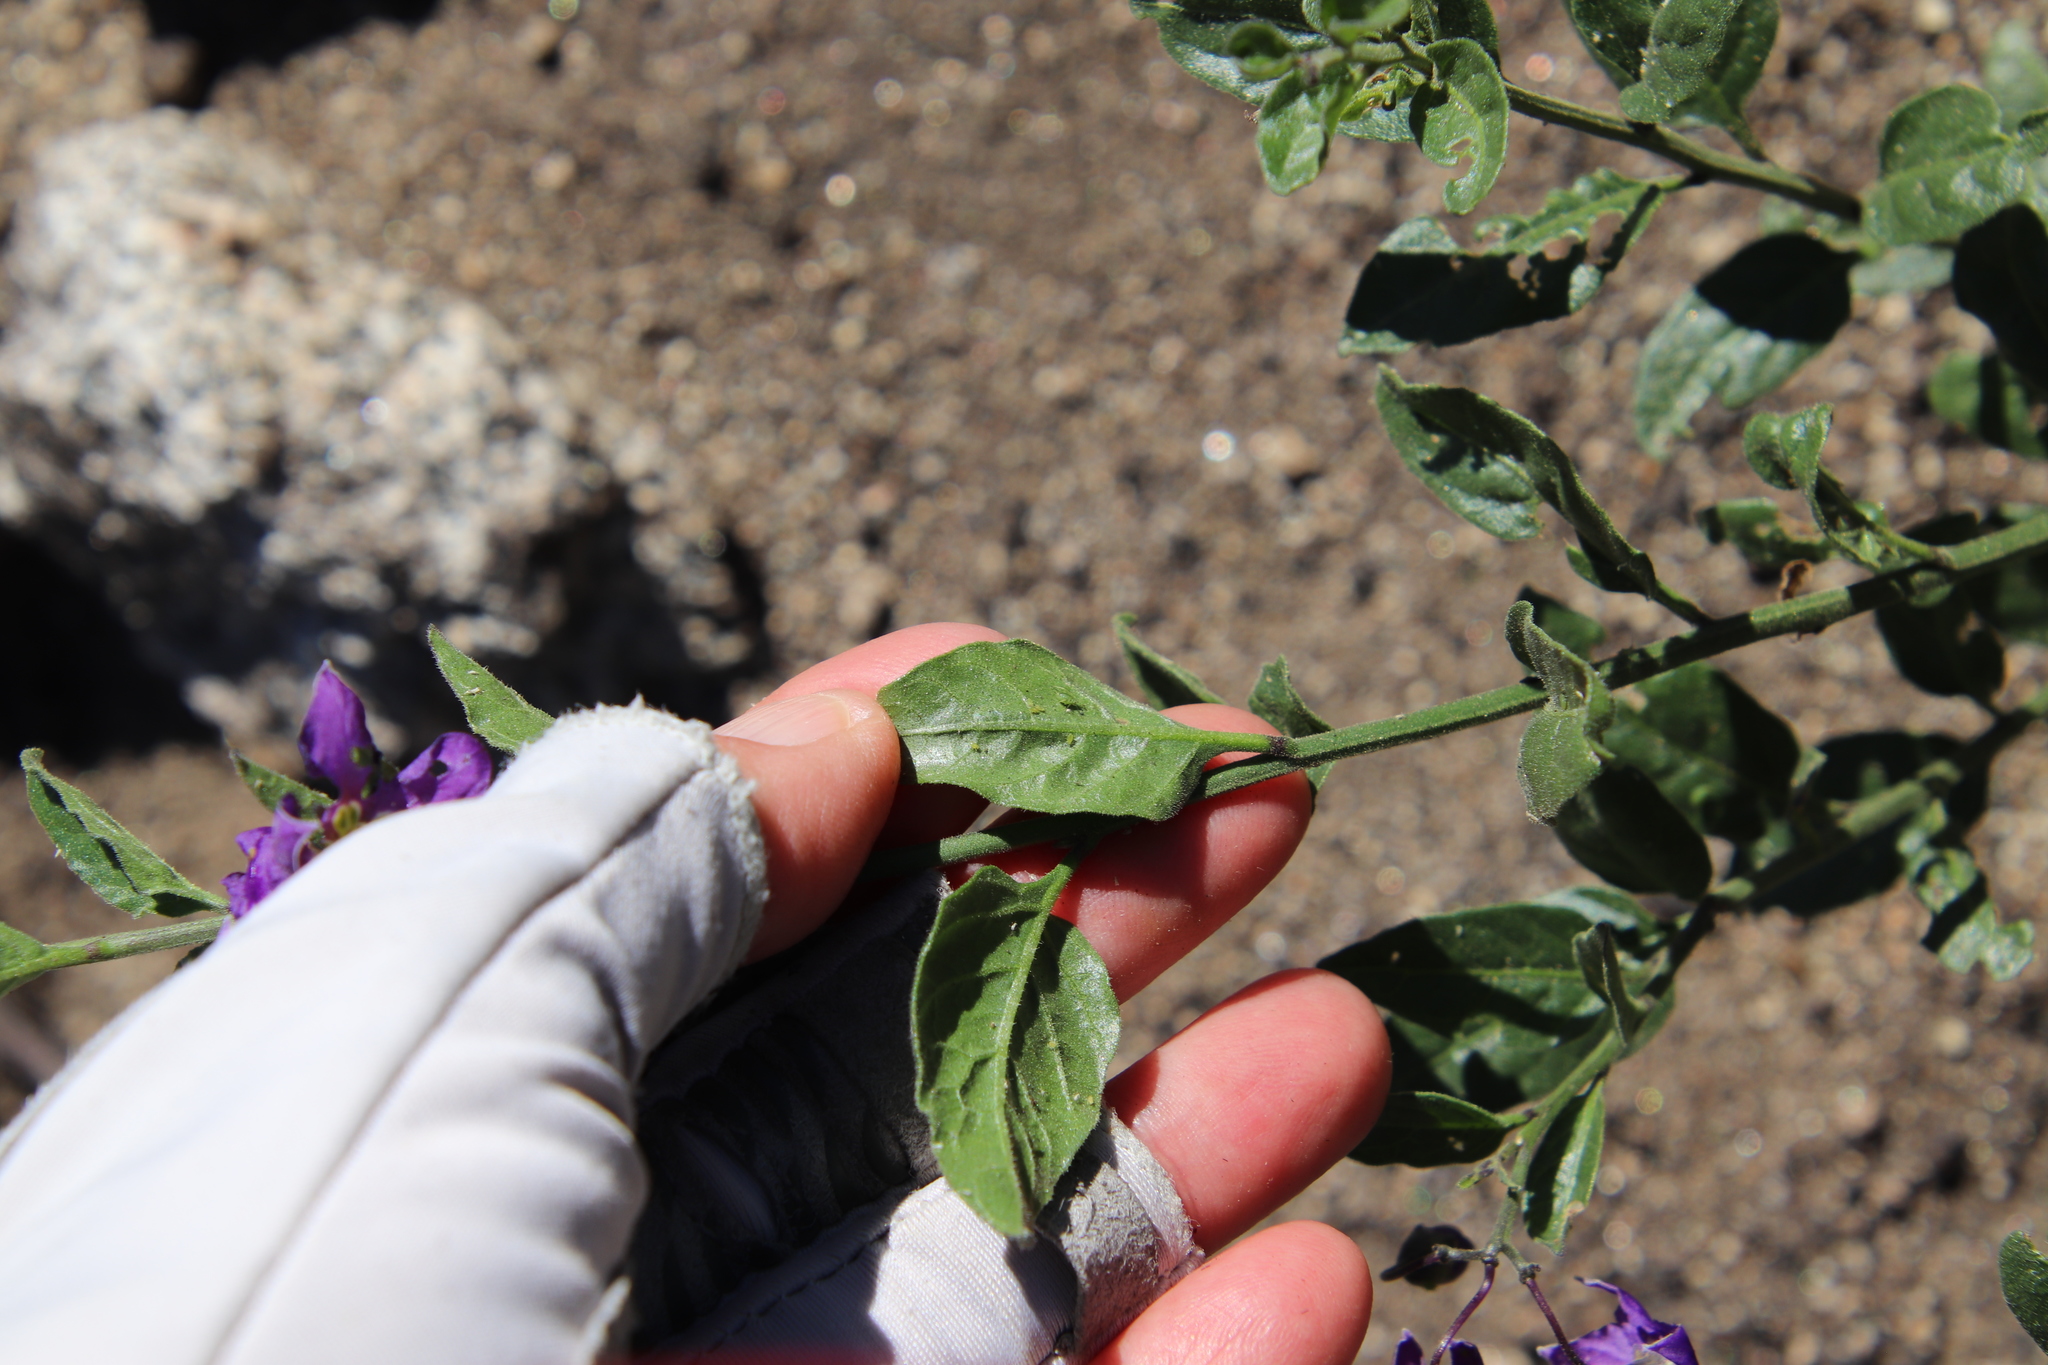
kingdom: Plantae
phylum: Tracheophyta
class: Magnoliopsida
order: Solanales
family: Solanaceae
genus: Solanum
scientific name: Solanum umbelliferum
